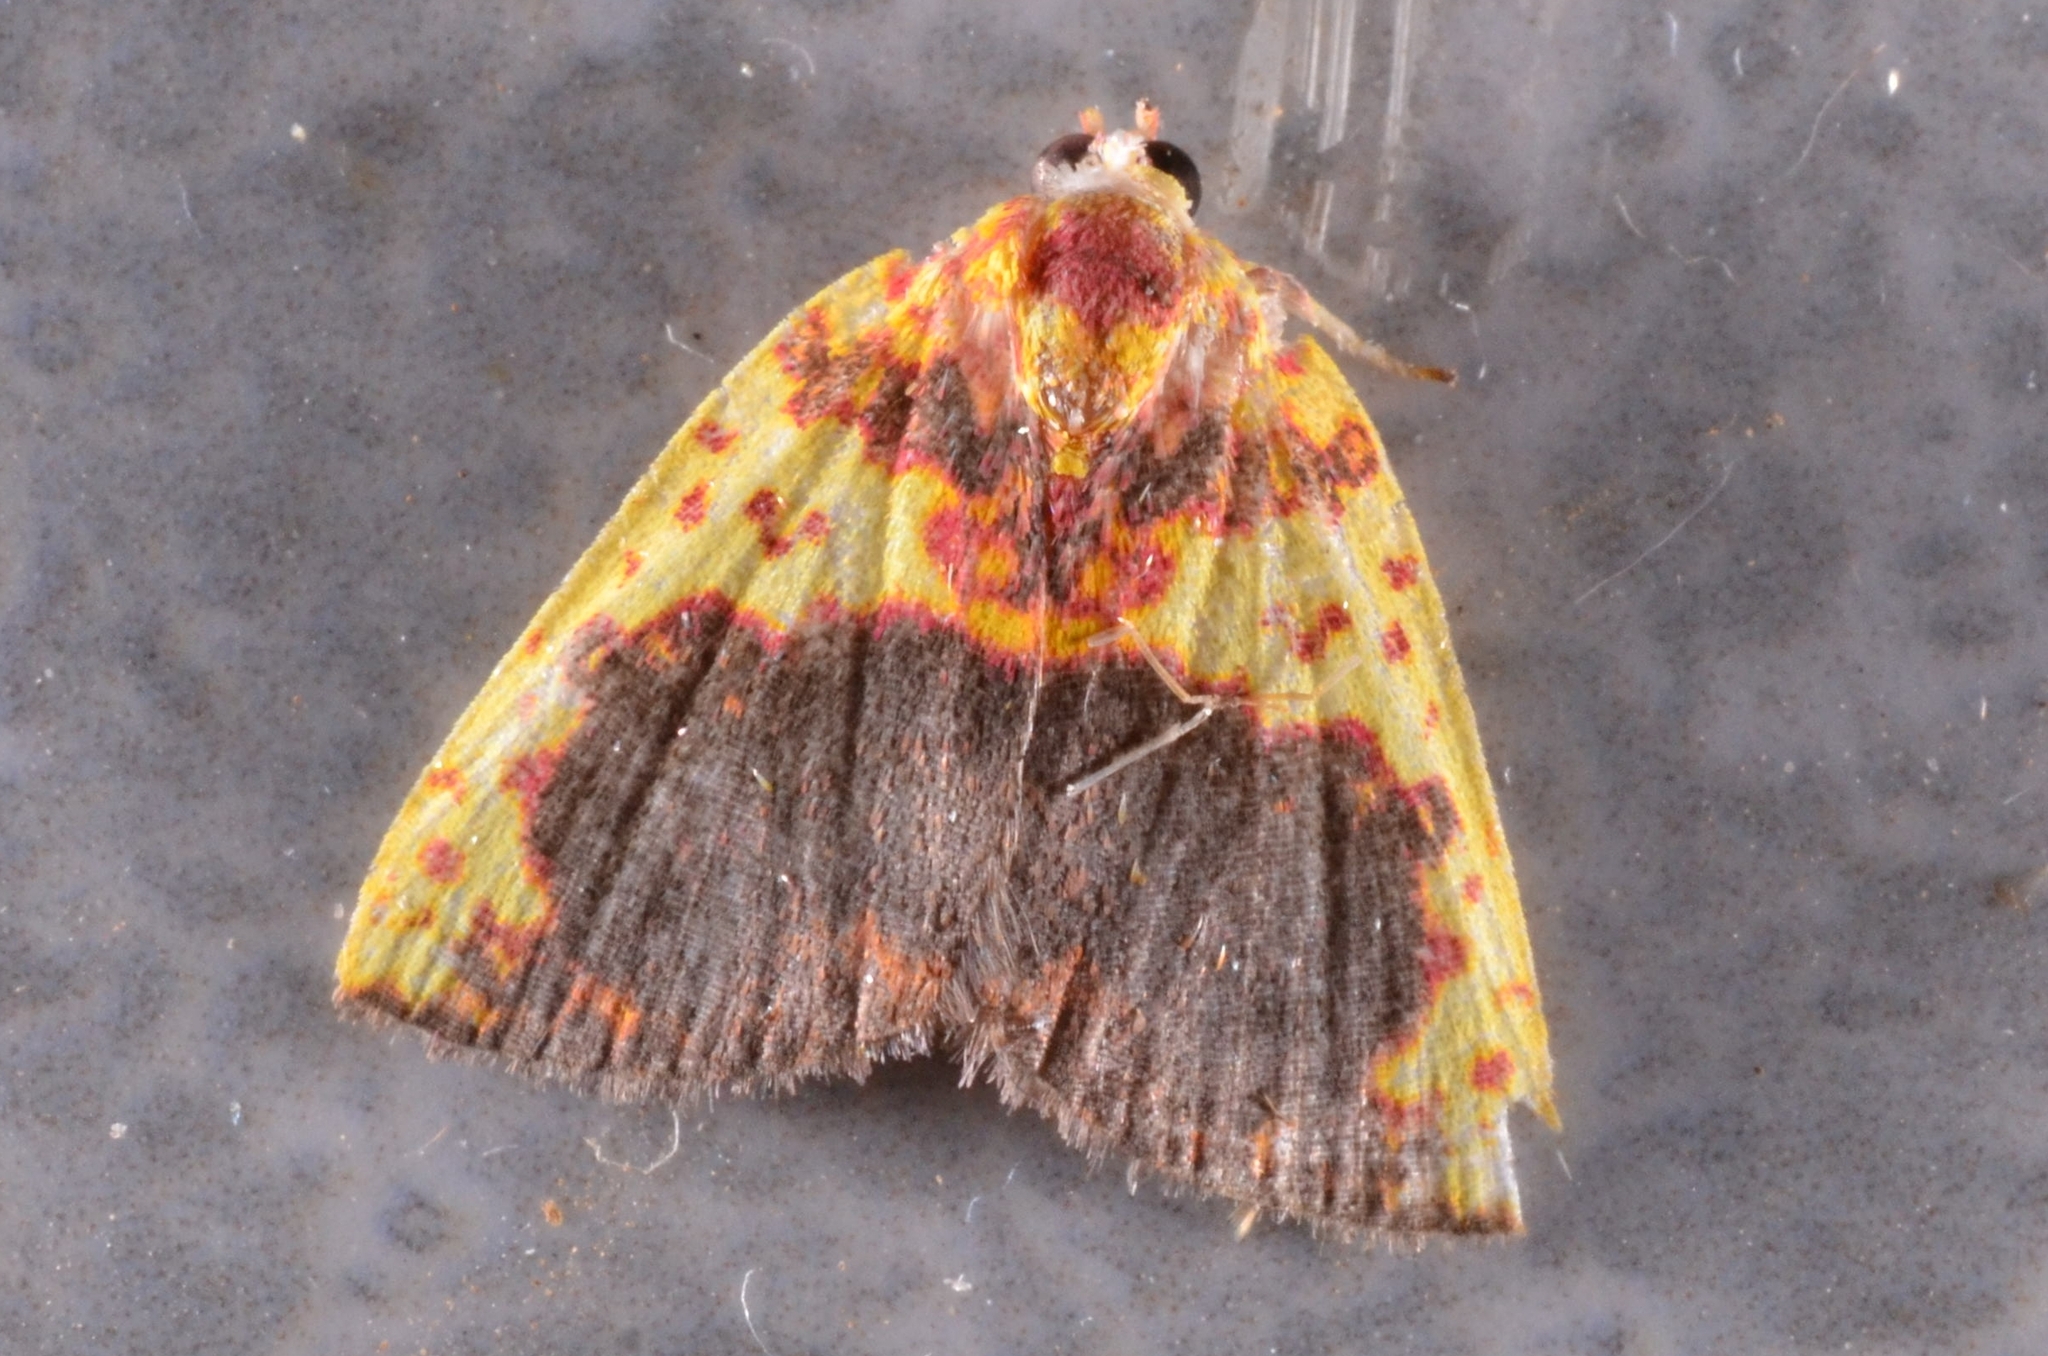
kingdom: Animalia
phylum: Arthropoda
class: Insecta
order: Lepidoptera
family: Nolidae
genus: Siglophora
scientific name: Siglophora haemoxantha
